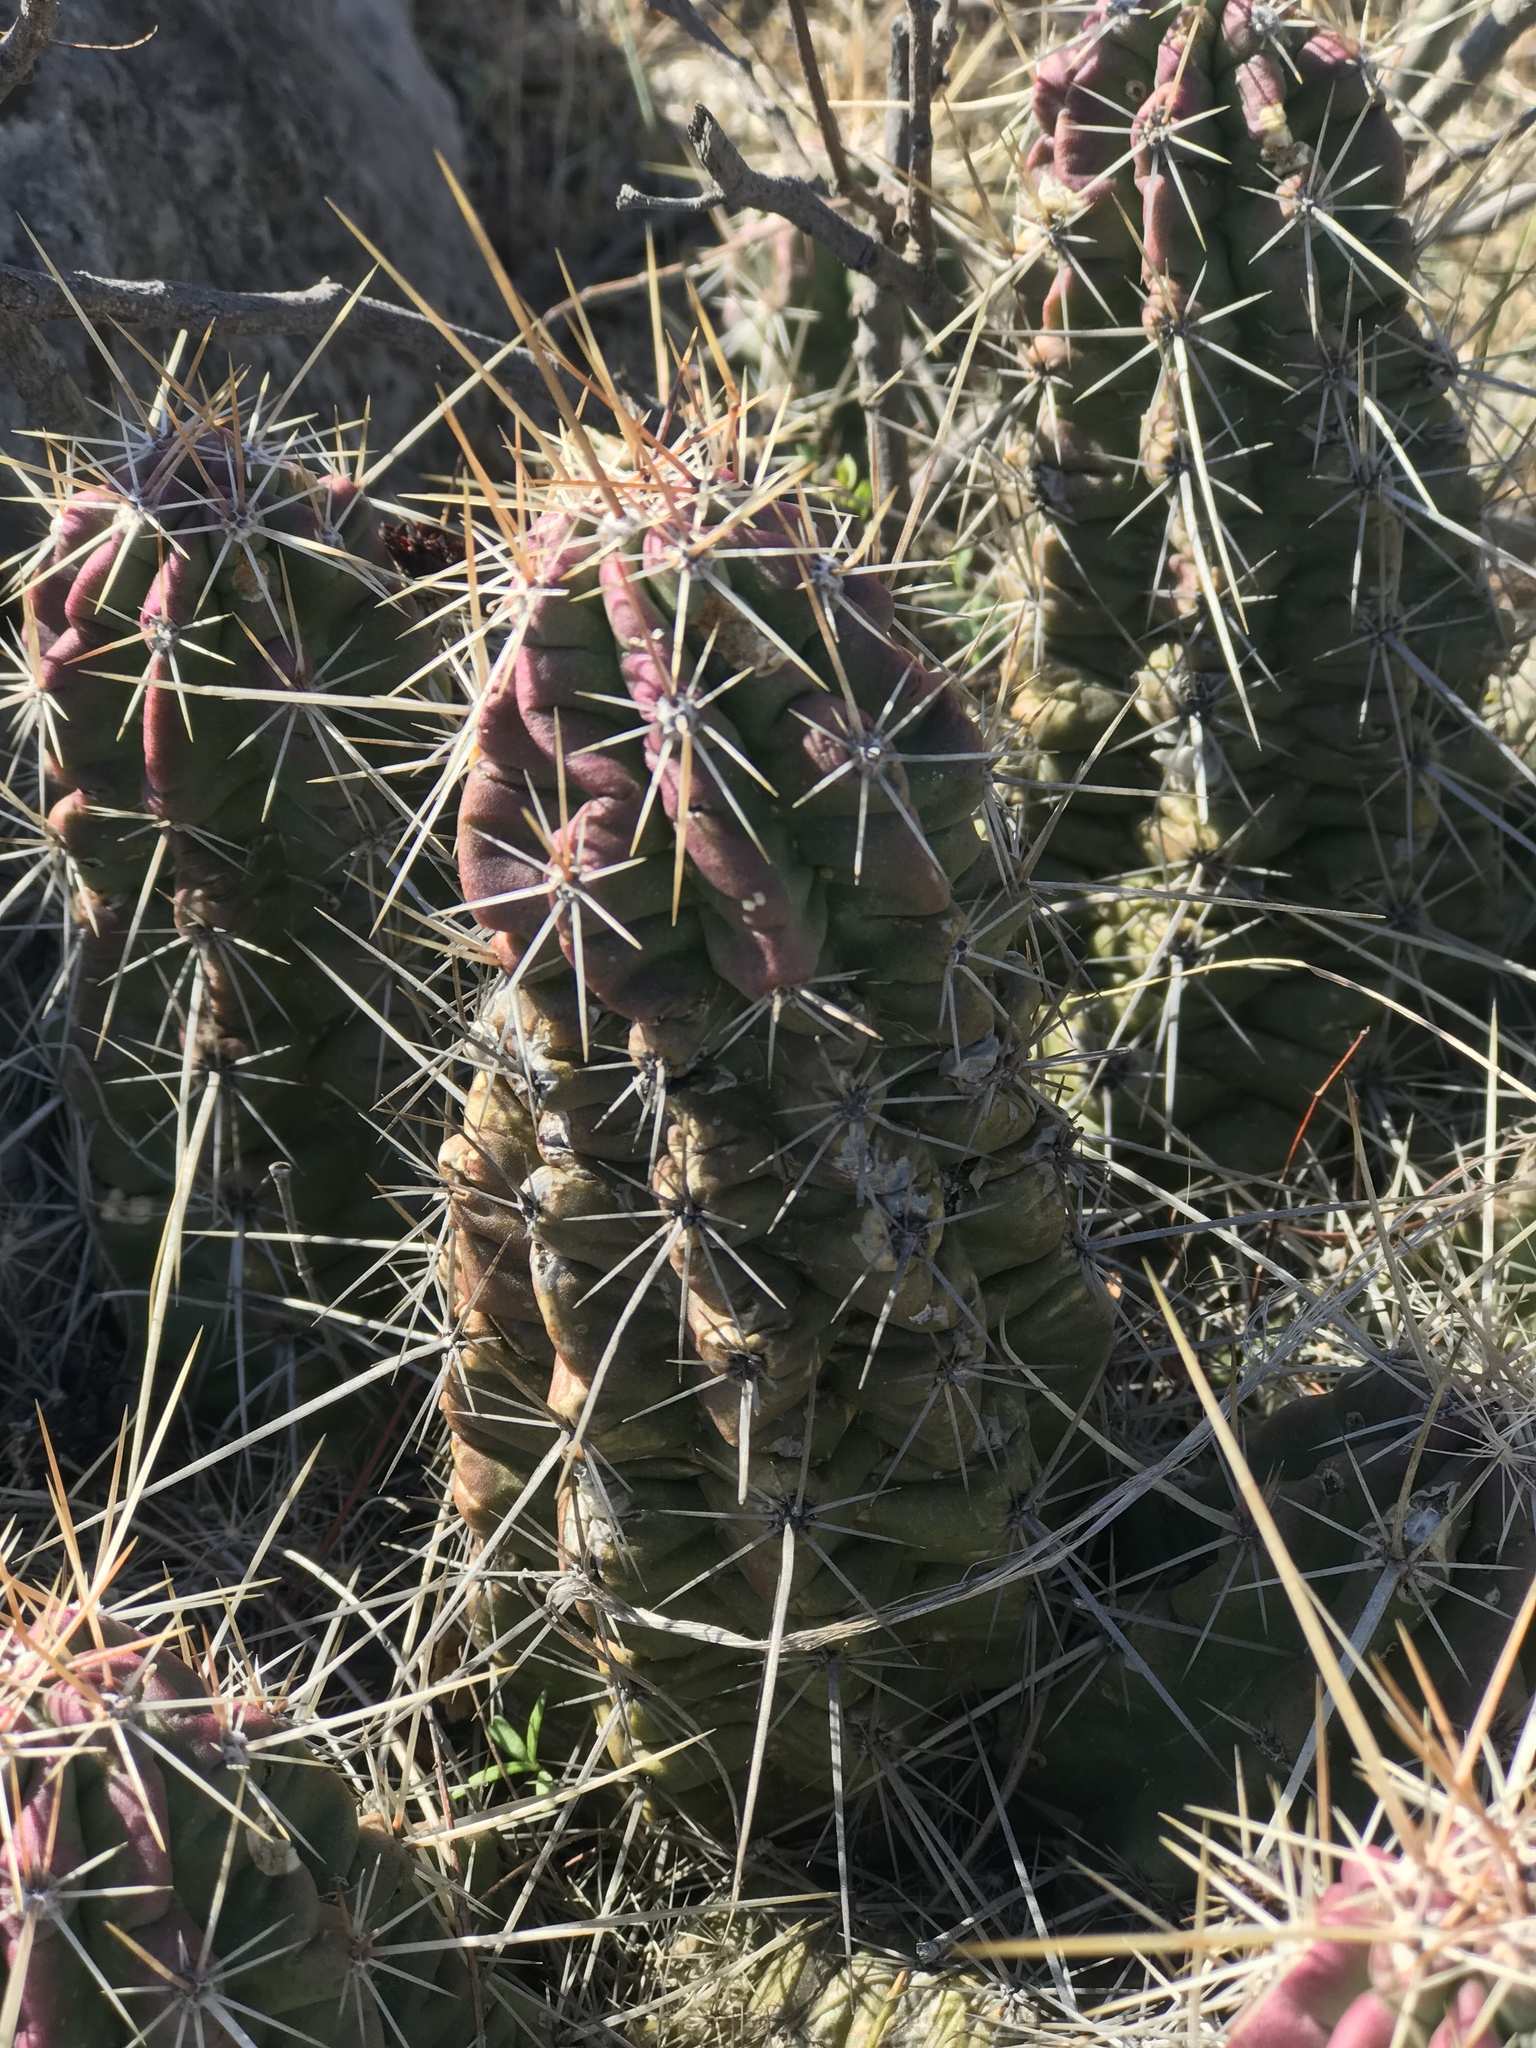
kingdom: Plantae
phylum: Tracheophyta
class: Magnoliopsida
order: Caryophyllales
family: Cactaceae
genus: Echinocereus
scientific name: Echinocereus enneacanthus
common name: Pitaya
